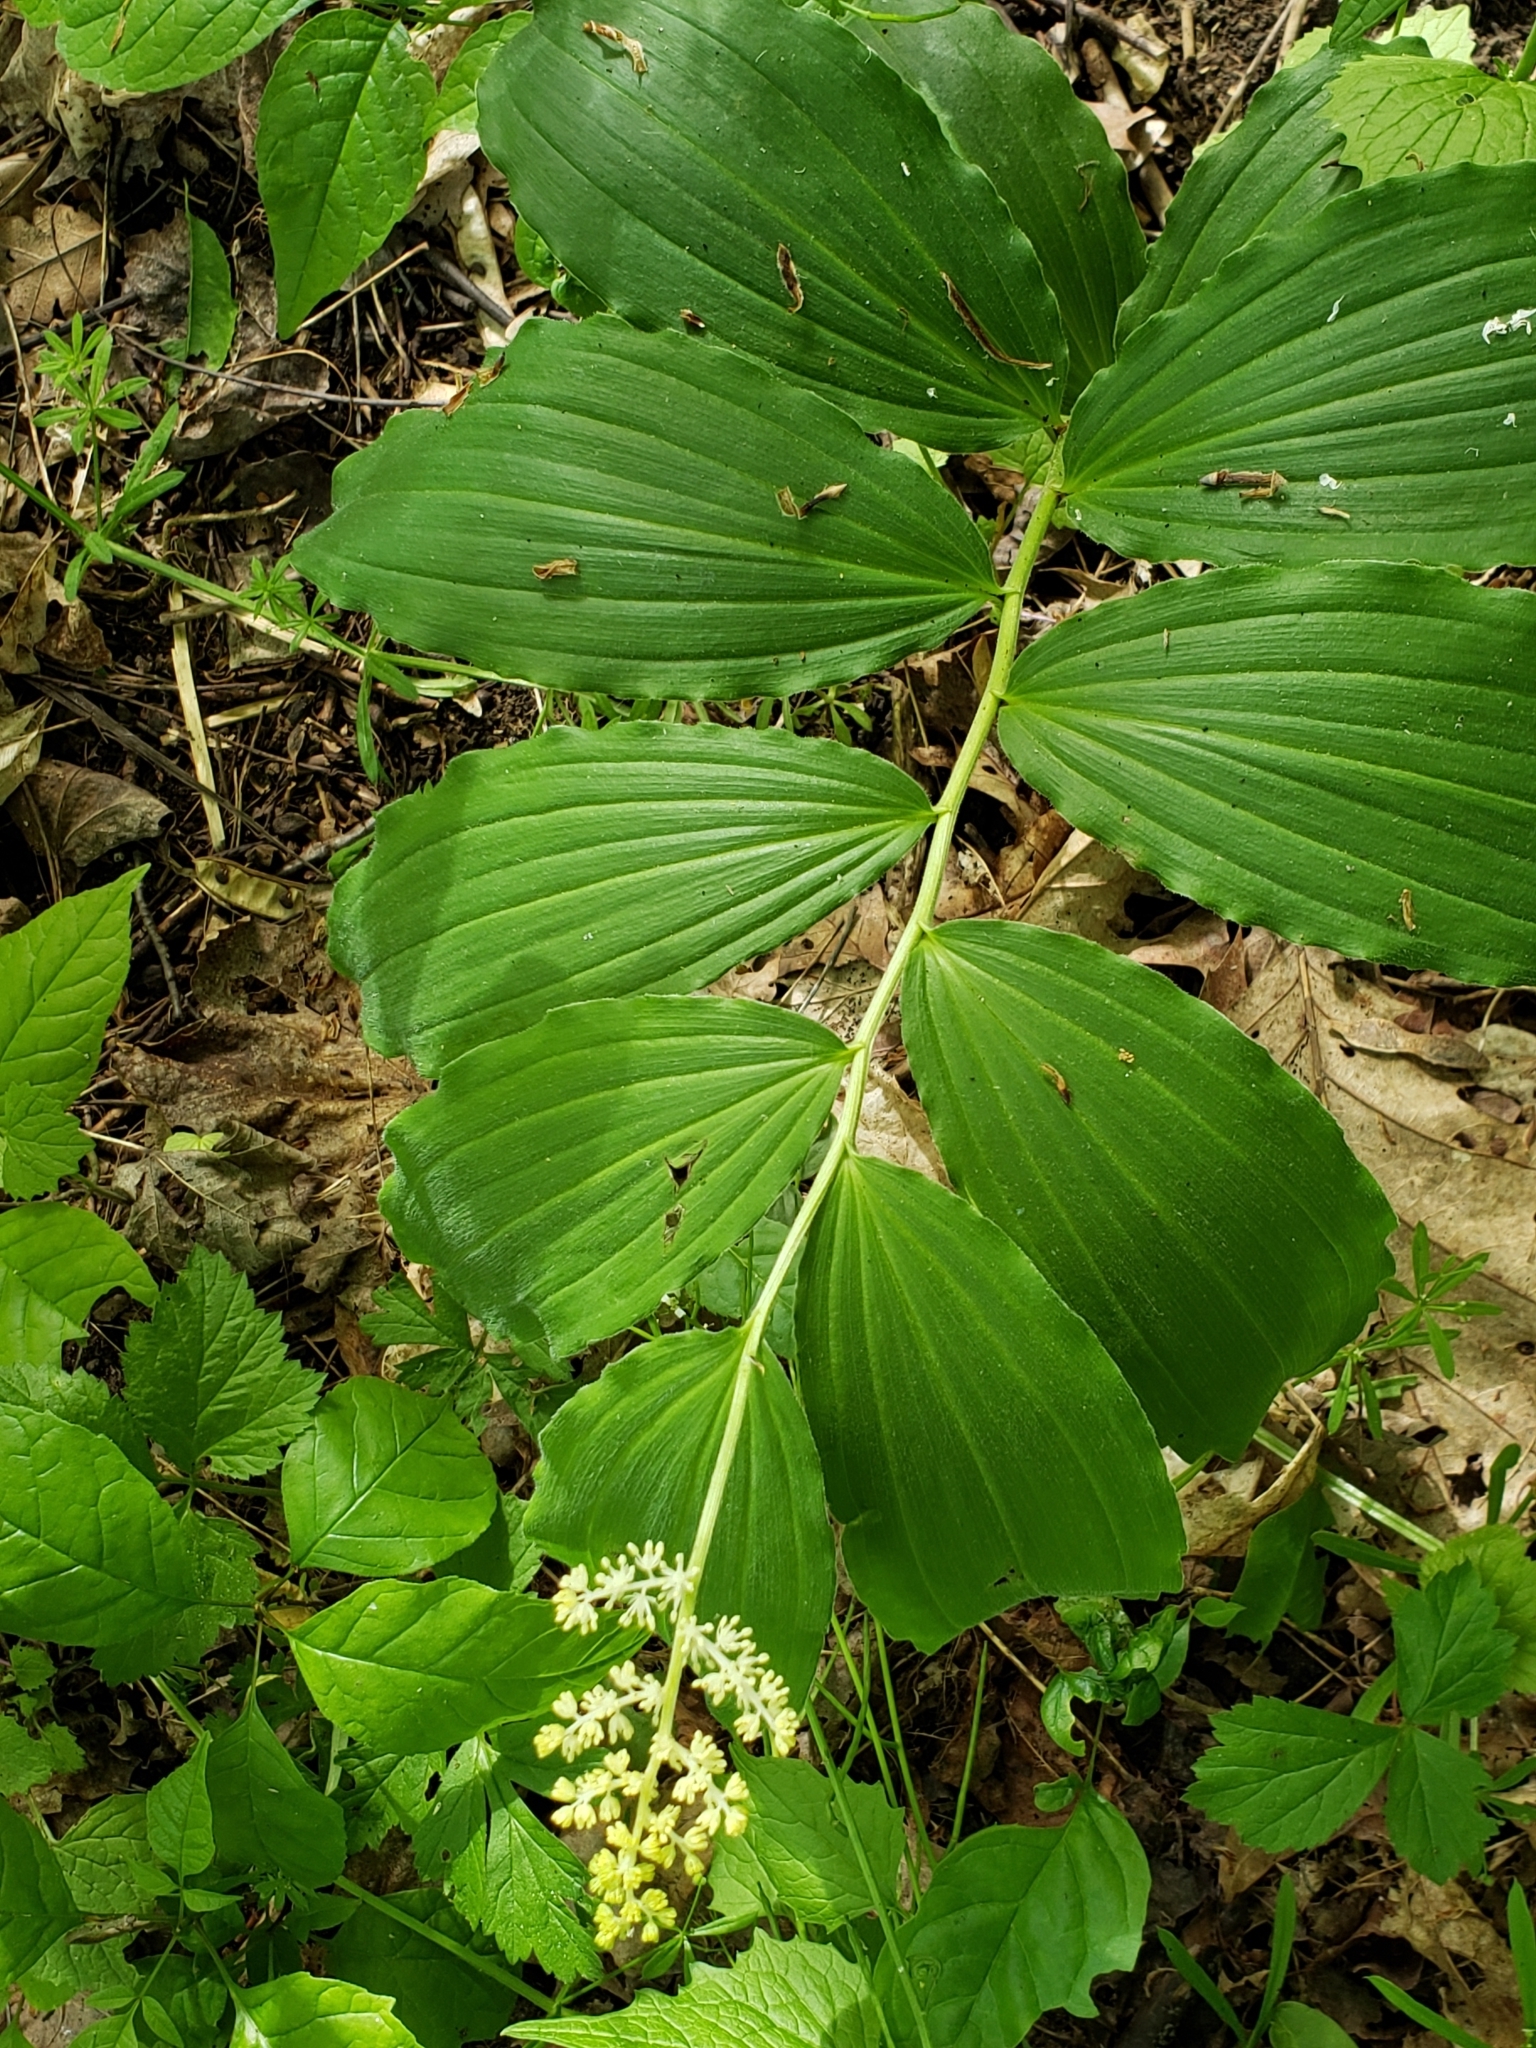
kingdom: Plantae
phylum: Tracheophyta
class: Liliopsida
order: Asparagales
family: Asparagaceae
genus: Maianthemum
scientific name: Maianthemum racemosum
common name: False spikenard
